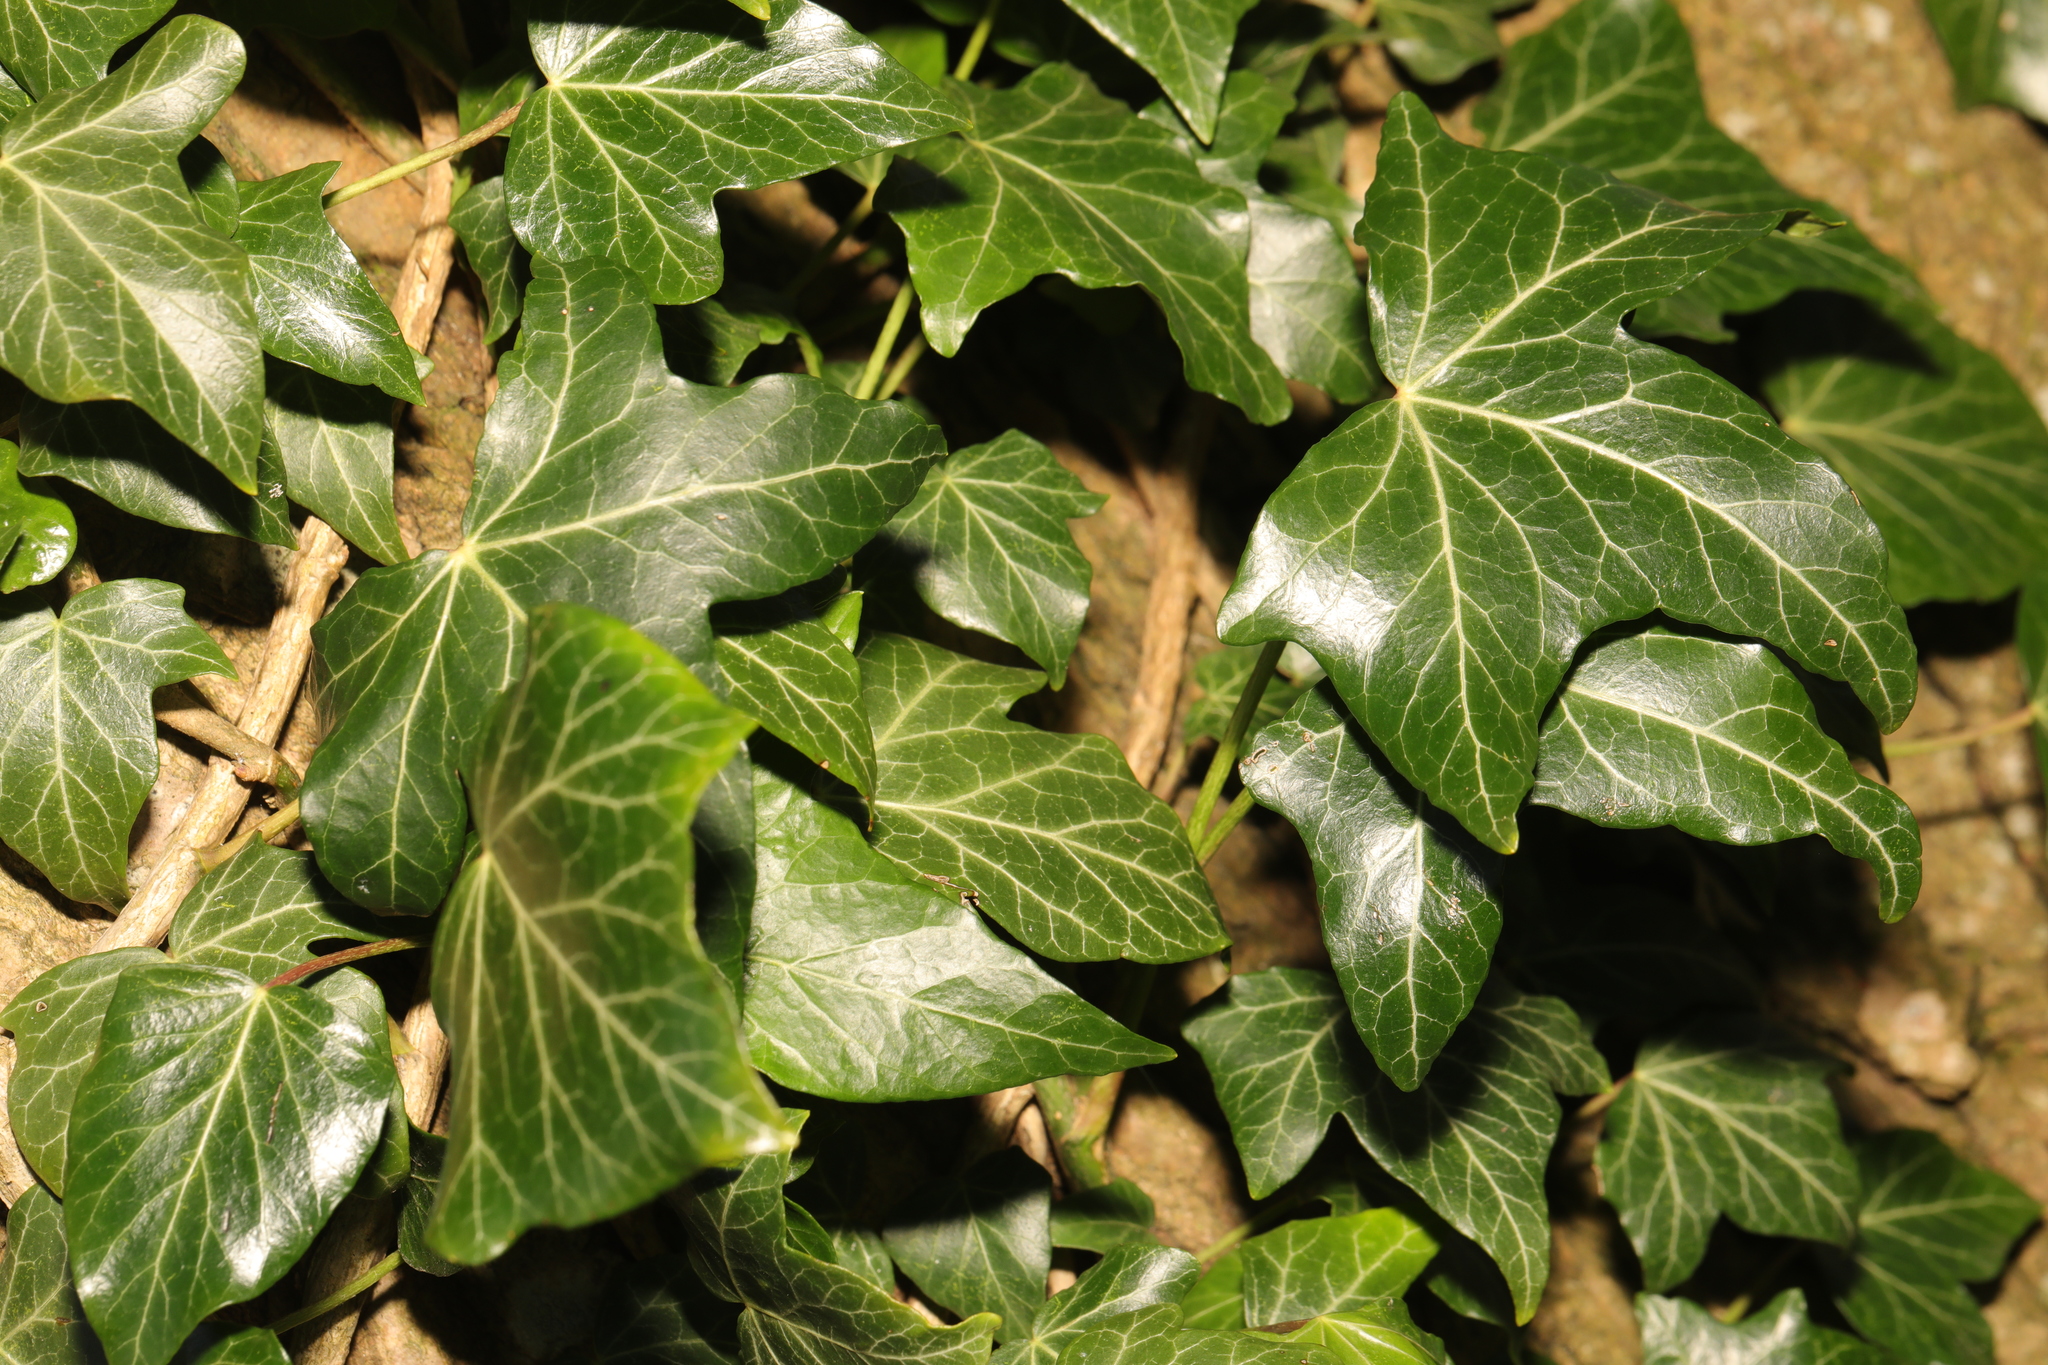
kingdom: Plantae
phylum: Tracheophyta
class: Magnoliopsida
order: Apiales
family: Araliaceae
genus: Hedera
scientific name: Hedera helix
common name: Ivy
